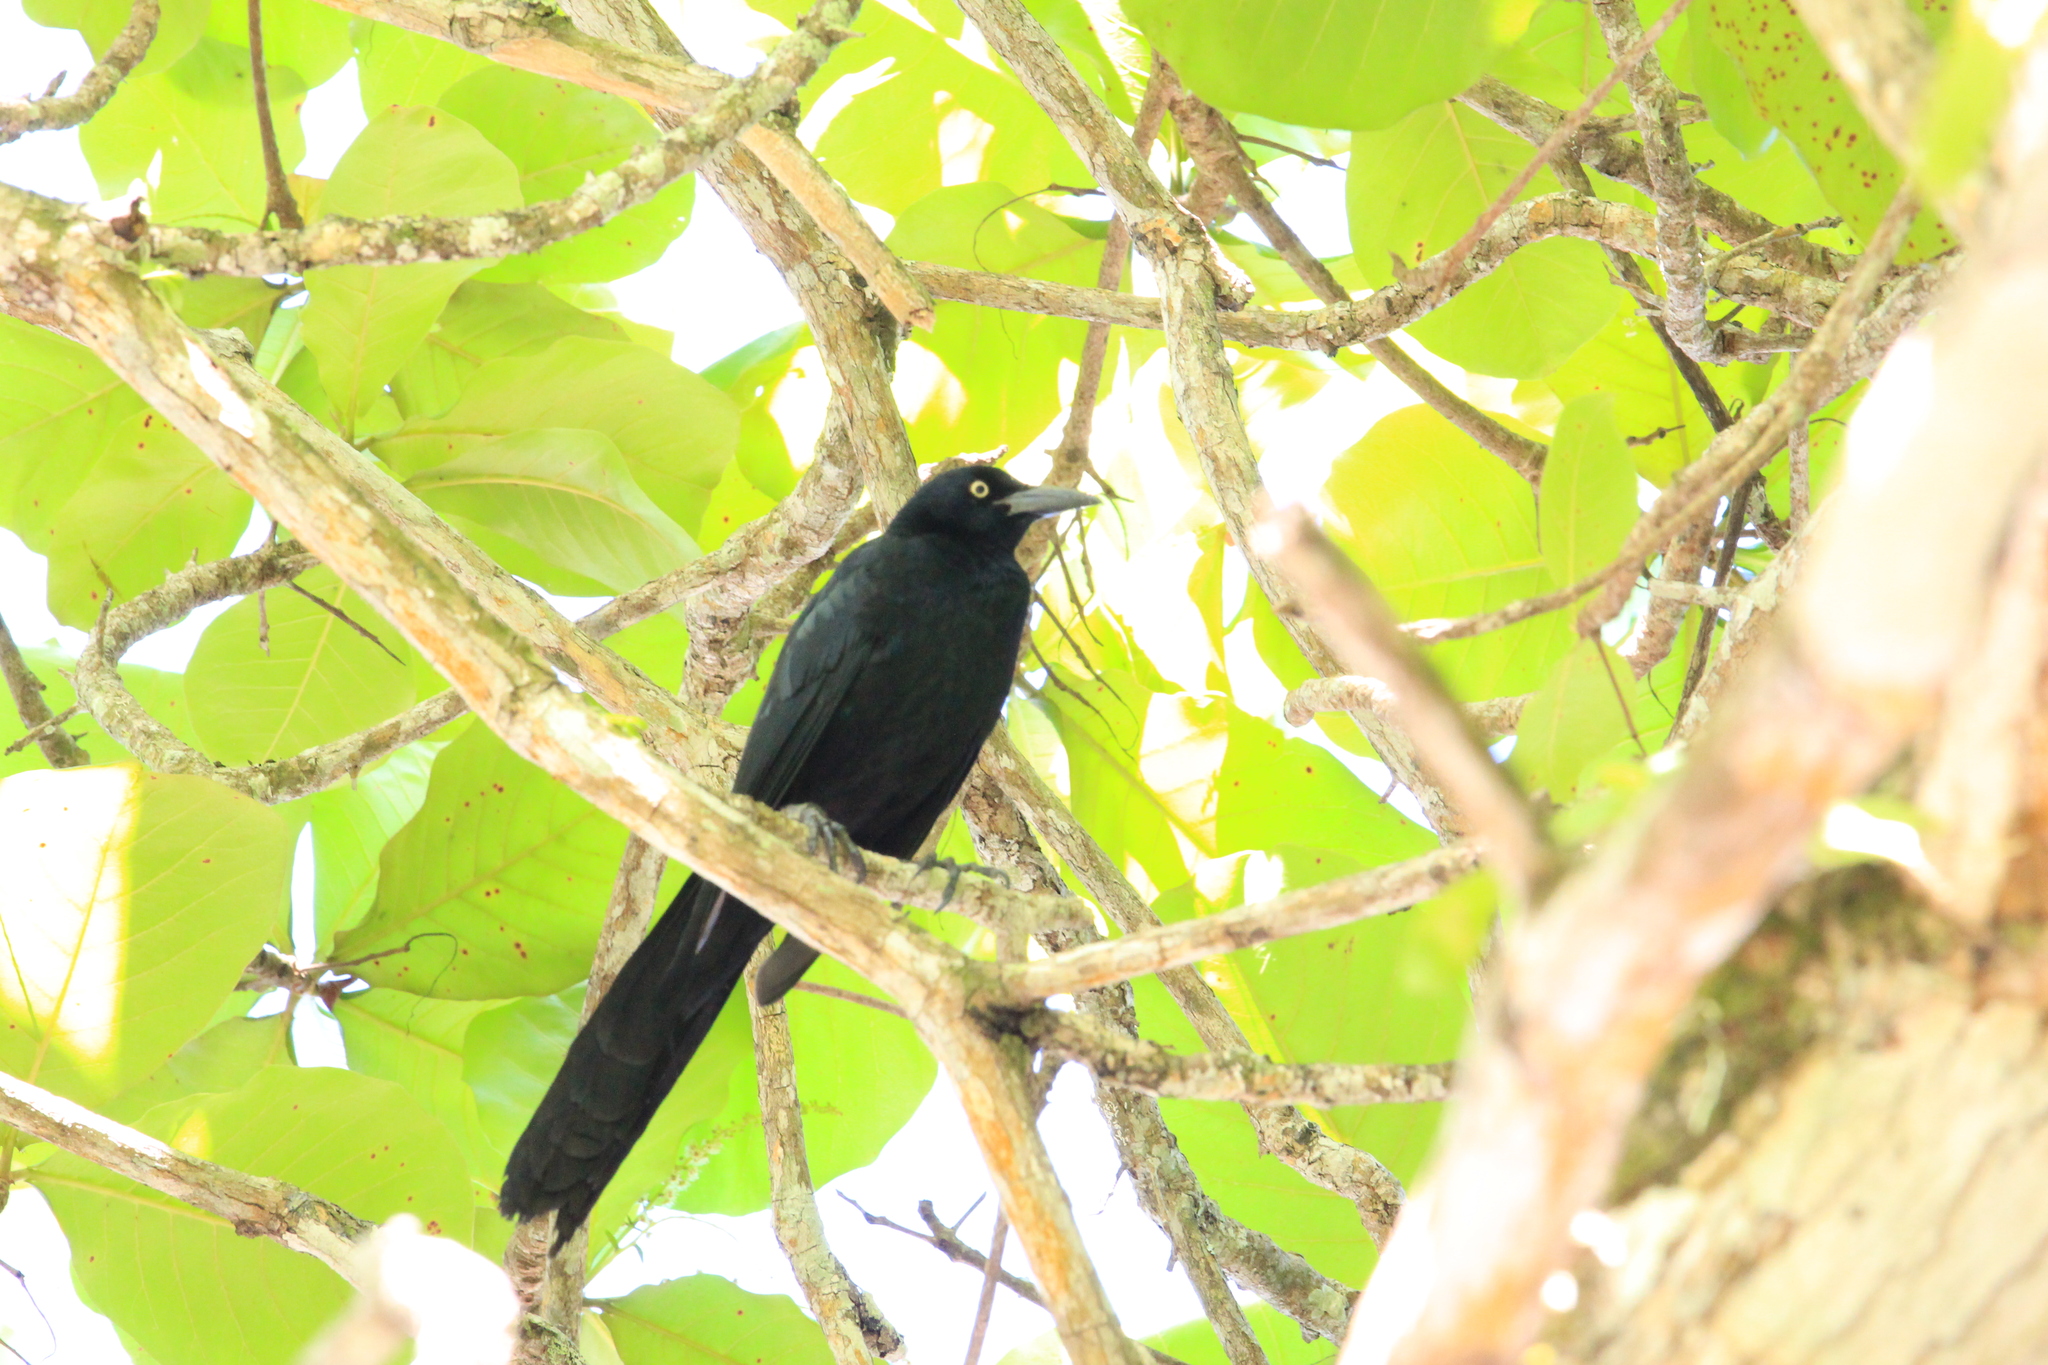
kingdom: Animalia
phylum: Chordata
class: Aves
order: Passeriformes
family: Icteridae
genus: Quiscalus
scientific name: Quiscalus mexicanus
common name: Great-tailed grackle
